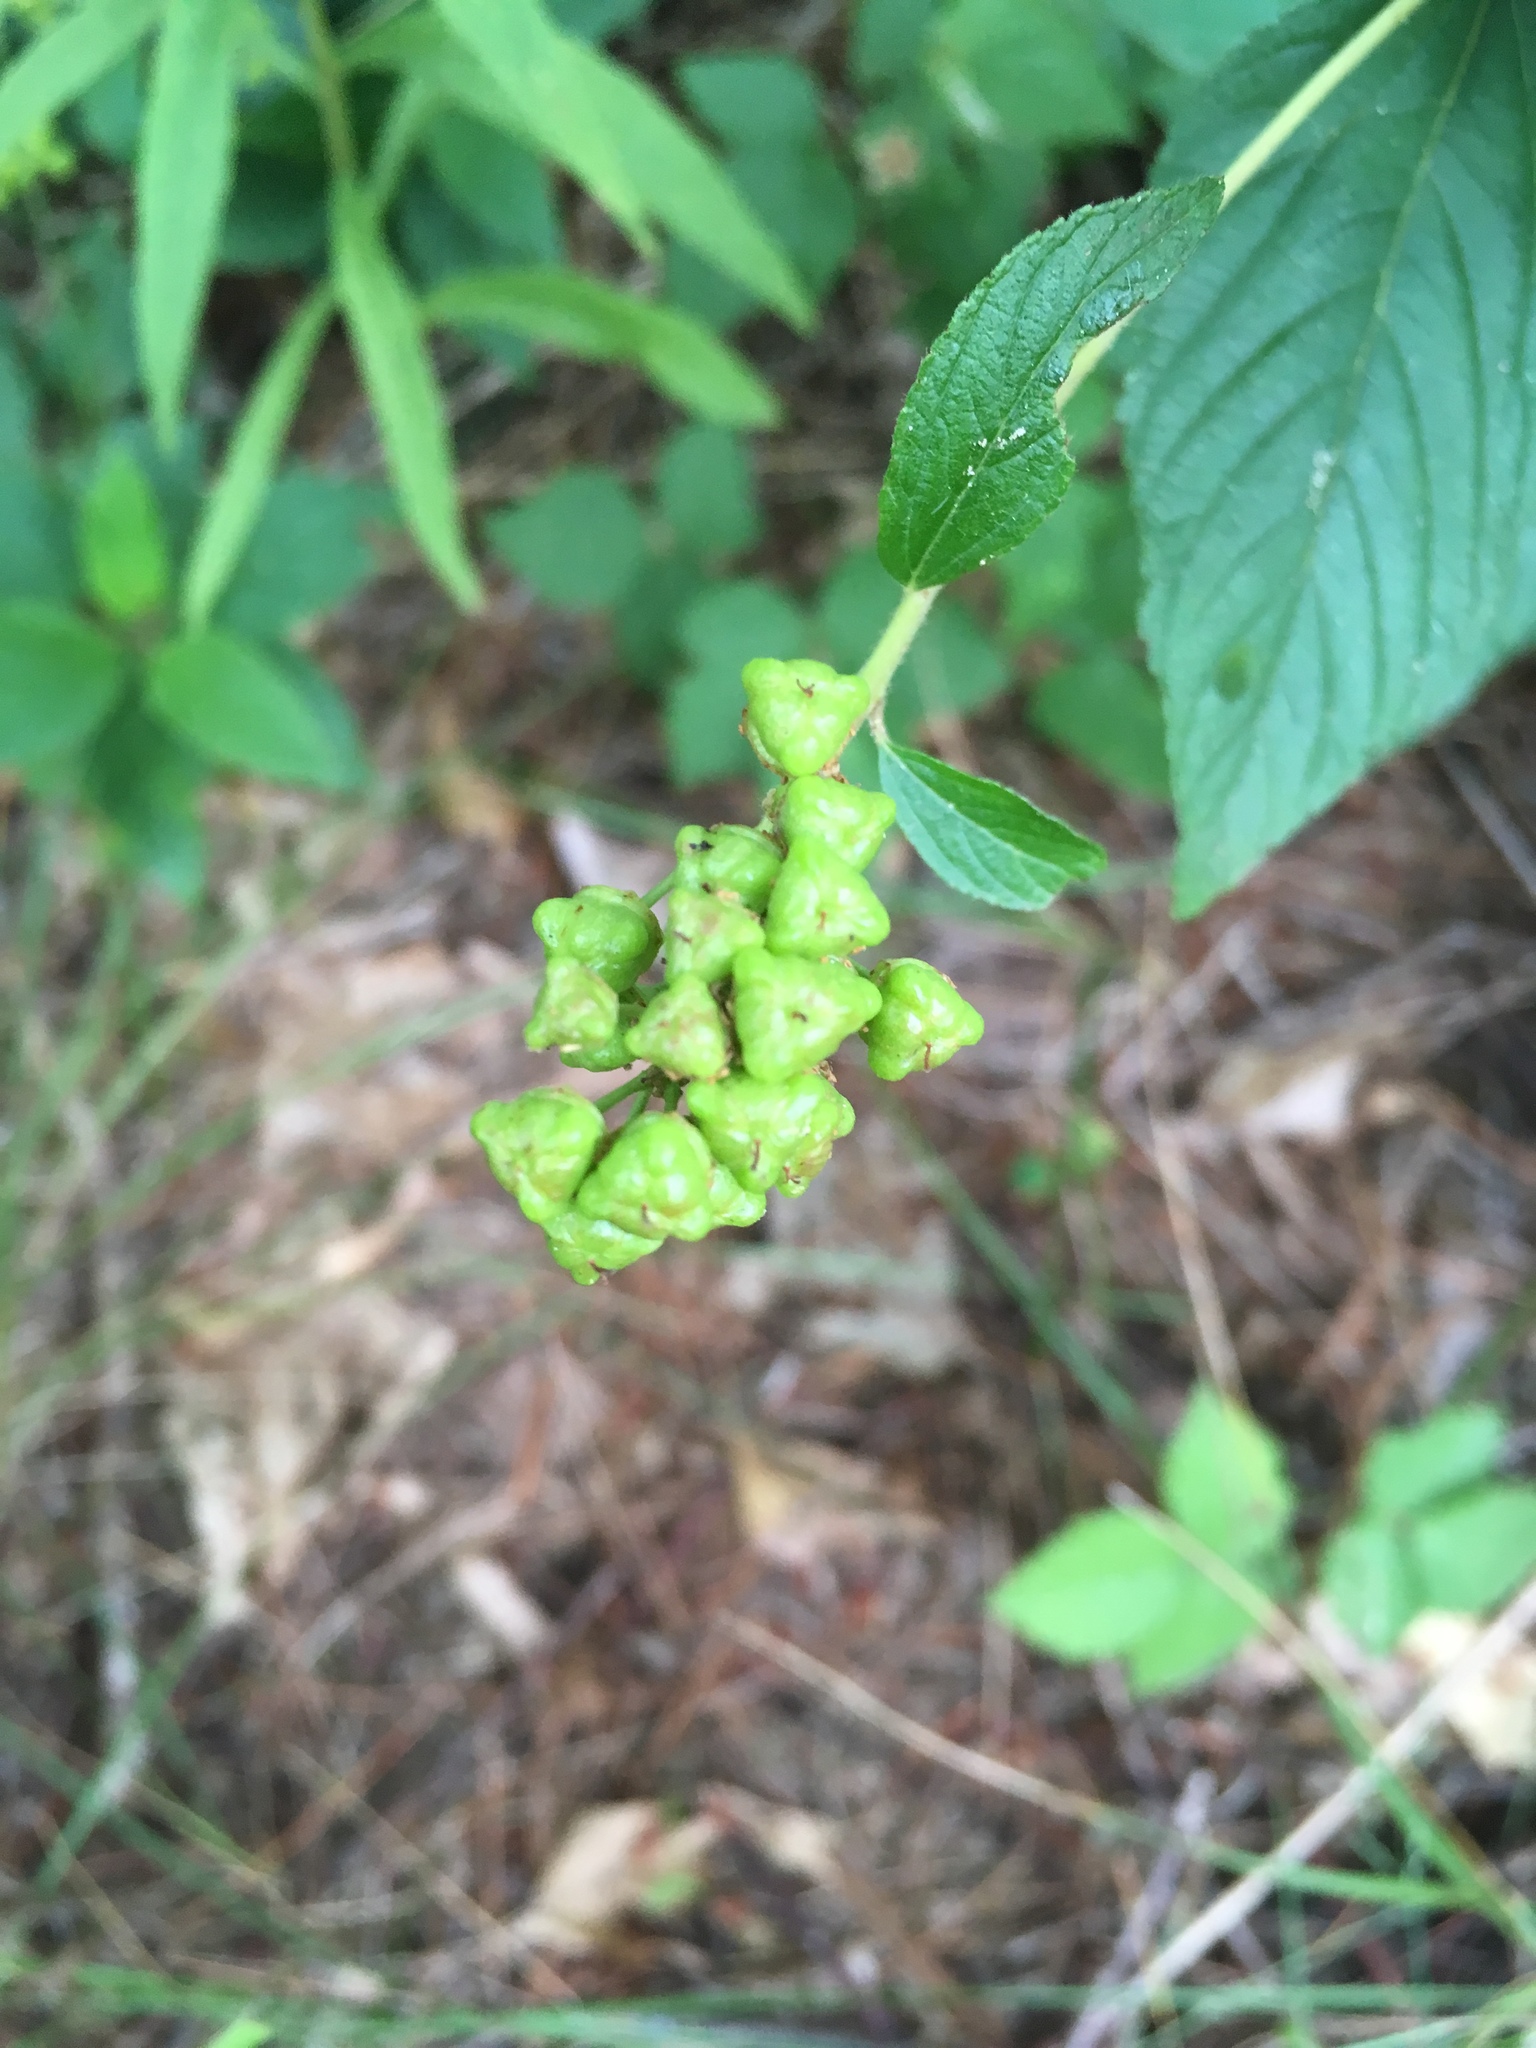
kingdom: Plantae
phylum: Tracheophyta
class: Magnoliopsida
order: Rosales
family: Rhamnaceae
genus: Ceanothus
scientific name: Ceanothus americanus
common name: Redroot
